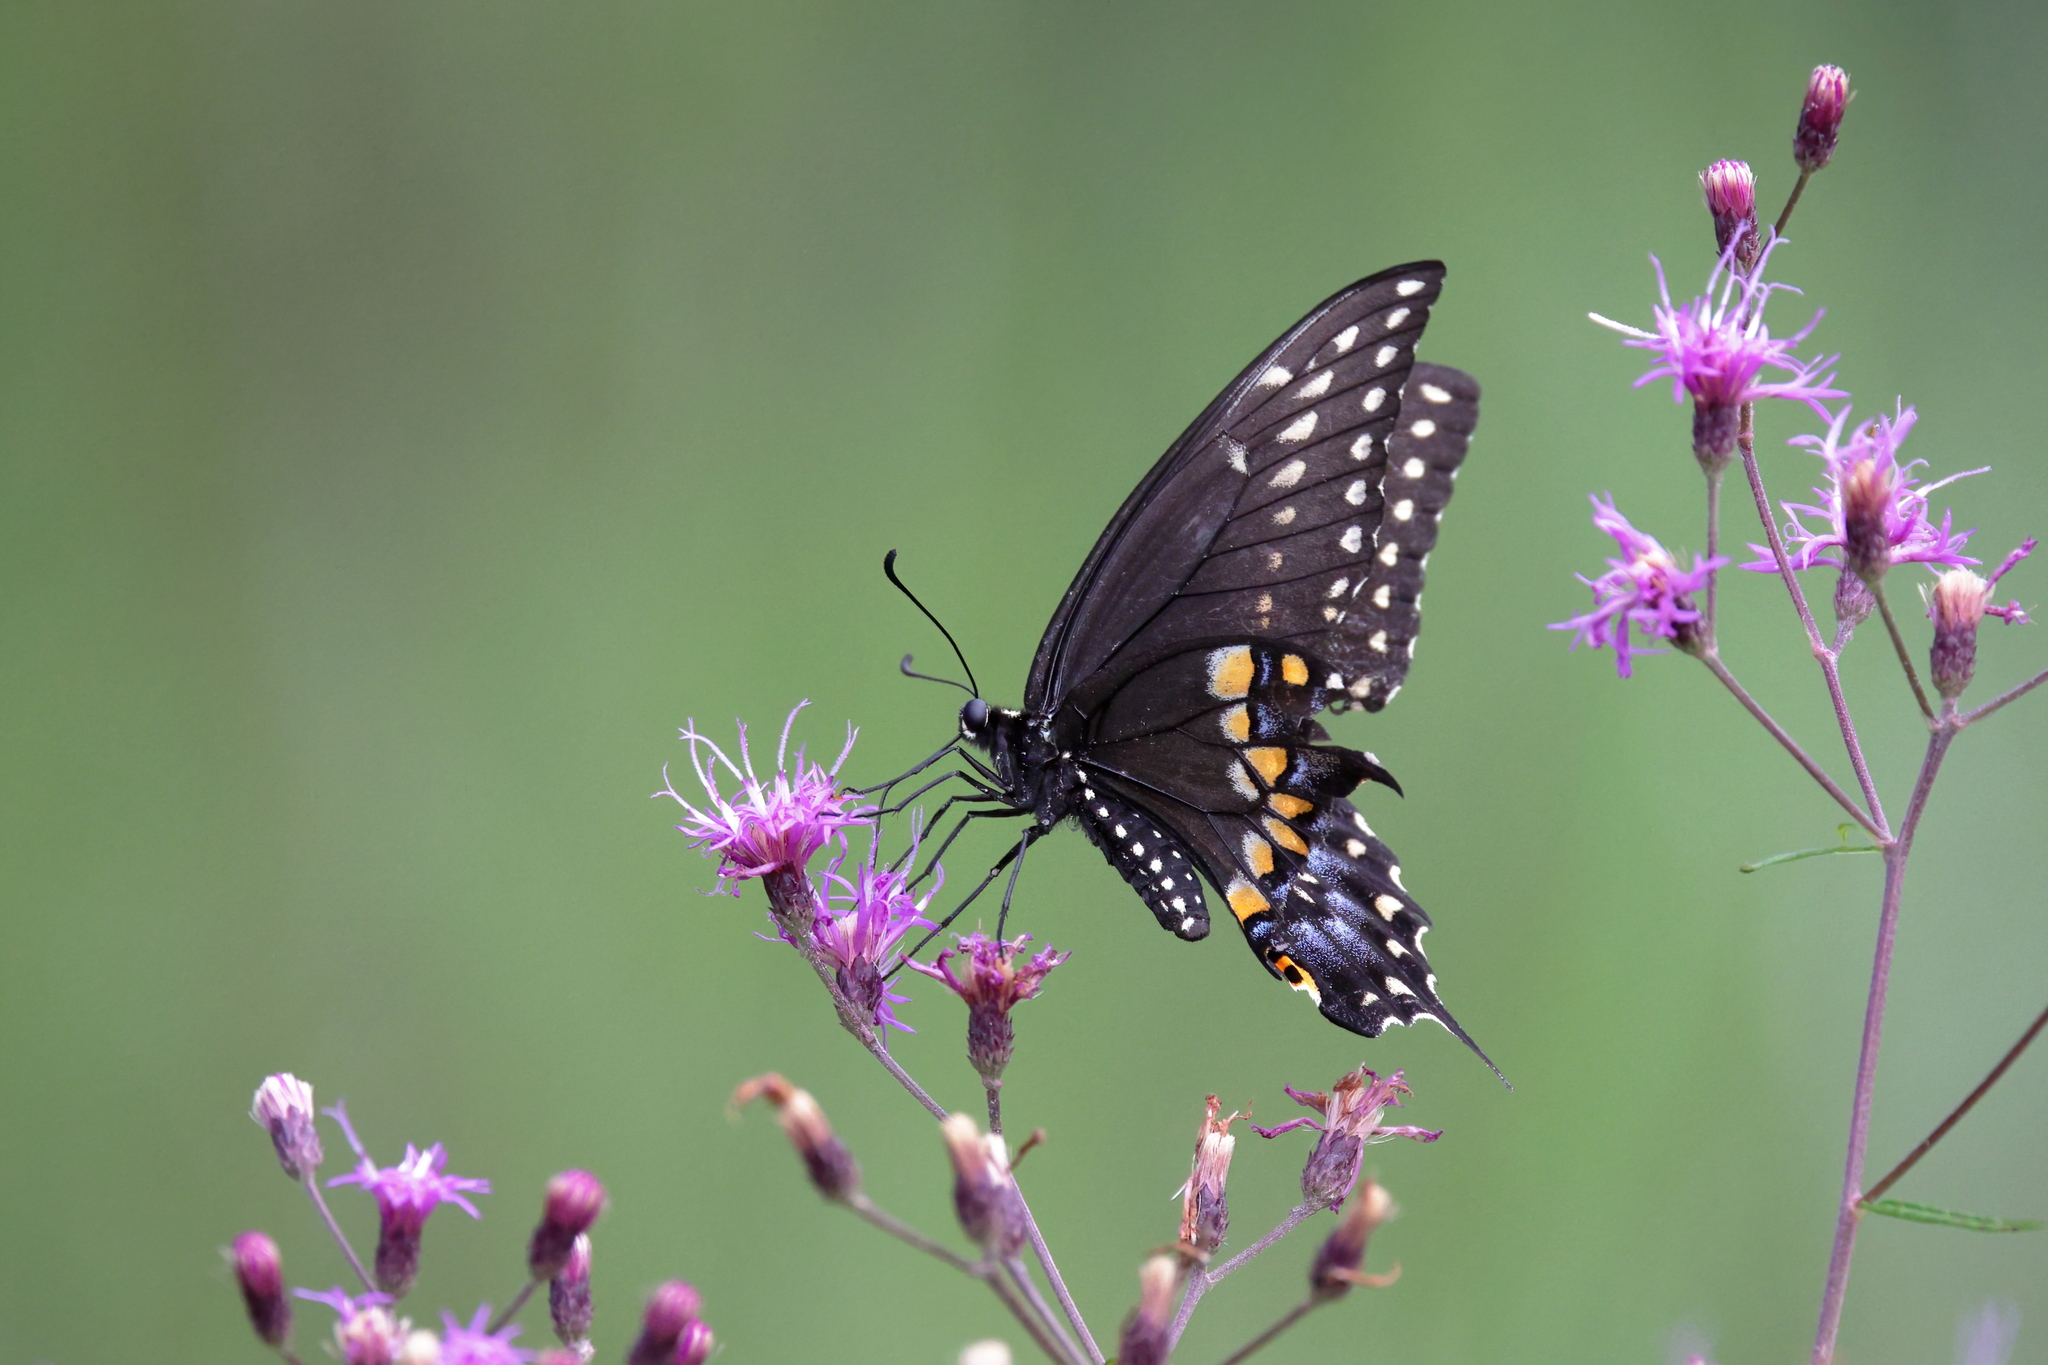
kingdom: Animalia
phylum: Arthropoda
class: Insecta
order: Lepidoptera
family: Papilionidae
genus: Papilio
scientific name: Papilio polyxenes
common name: Black swallowtail
